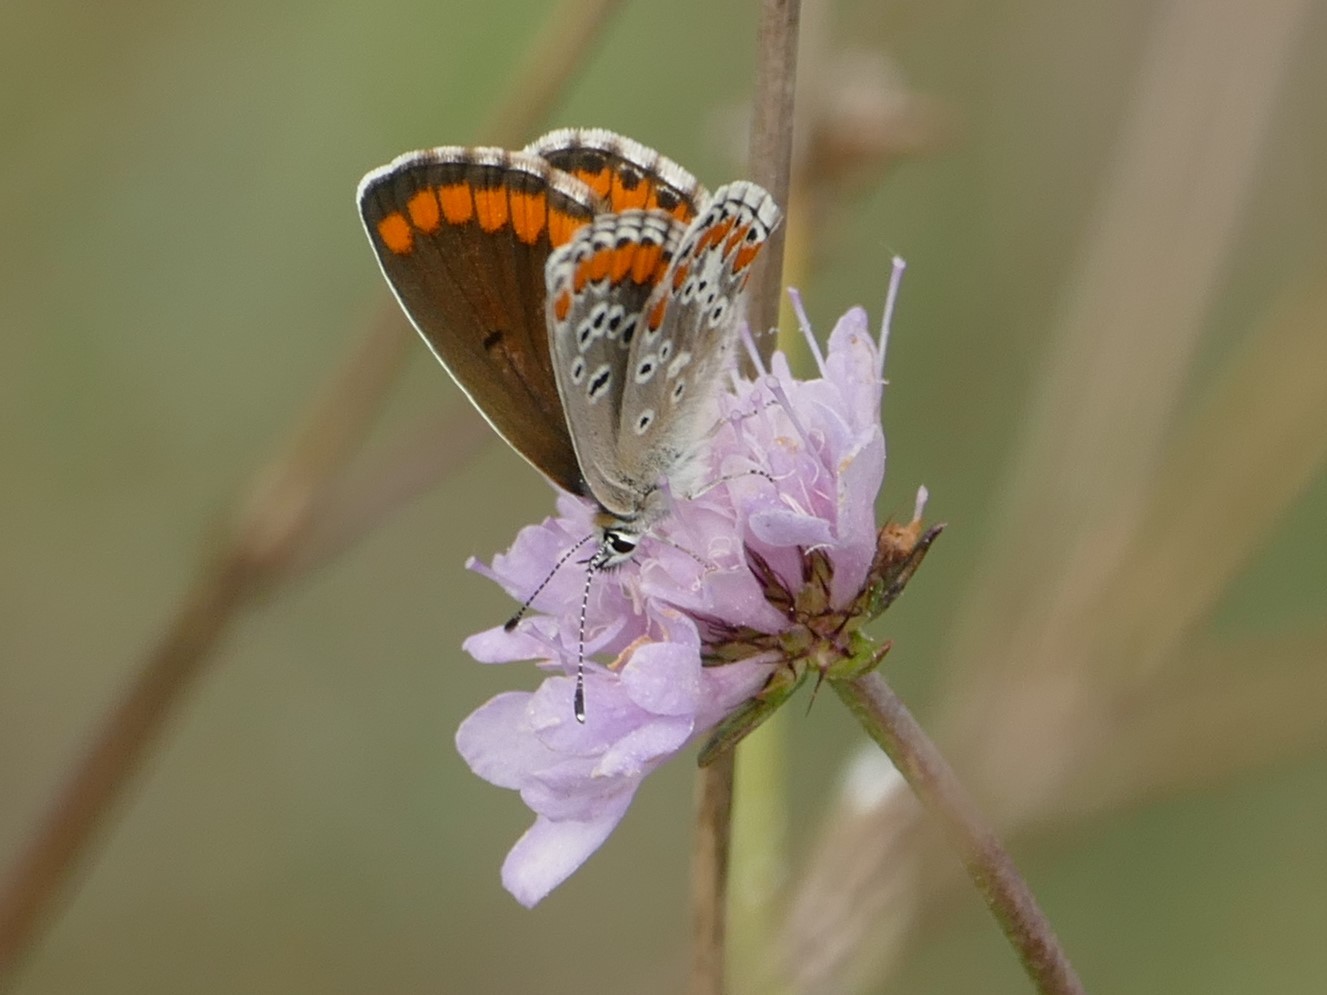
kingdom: Animalia
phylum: Arthropoda
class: Insecta
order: Lepidoptera
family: Lycaenidae
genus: Aricia
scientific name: Aricia cramera
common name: Eschscholtz´s brown  argus
